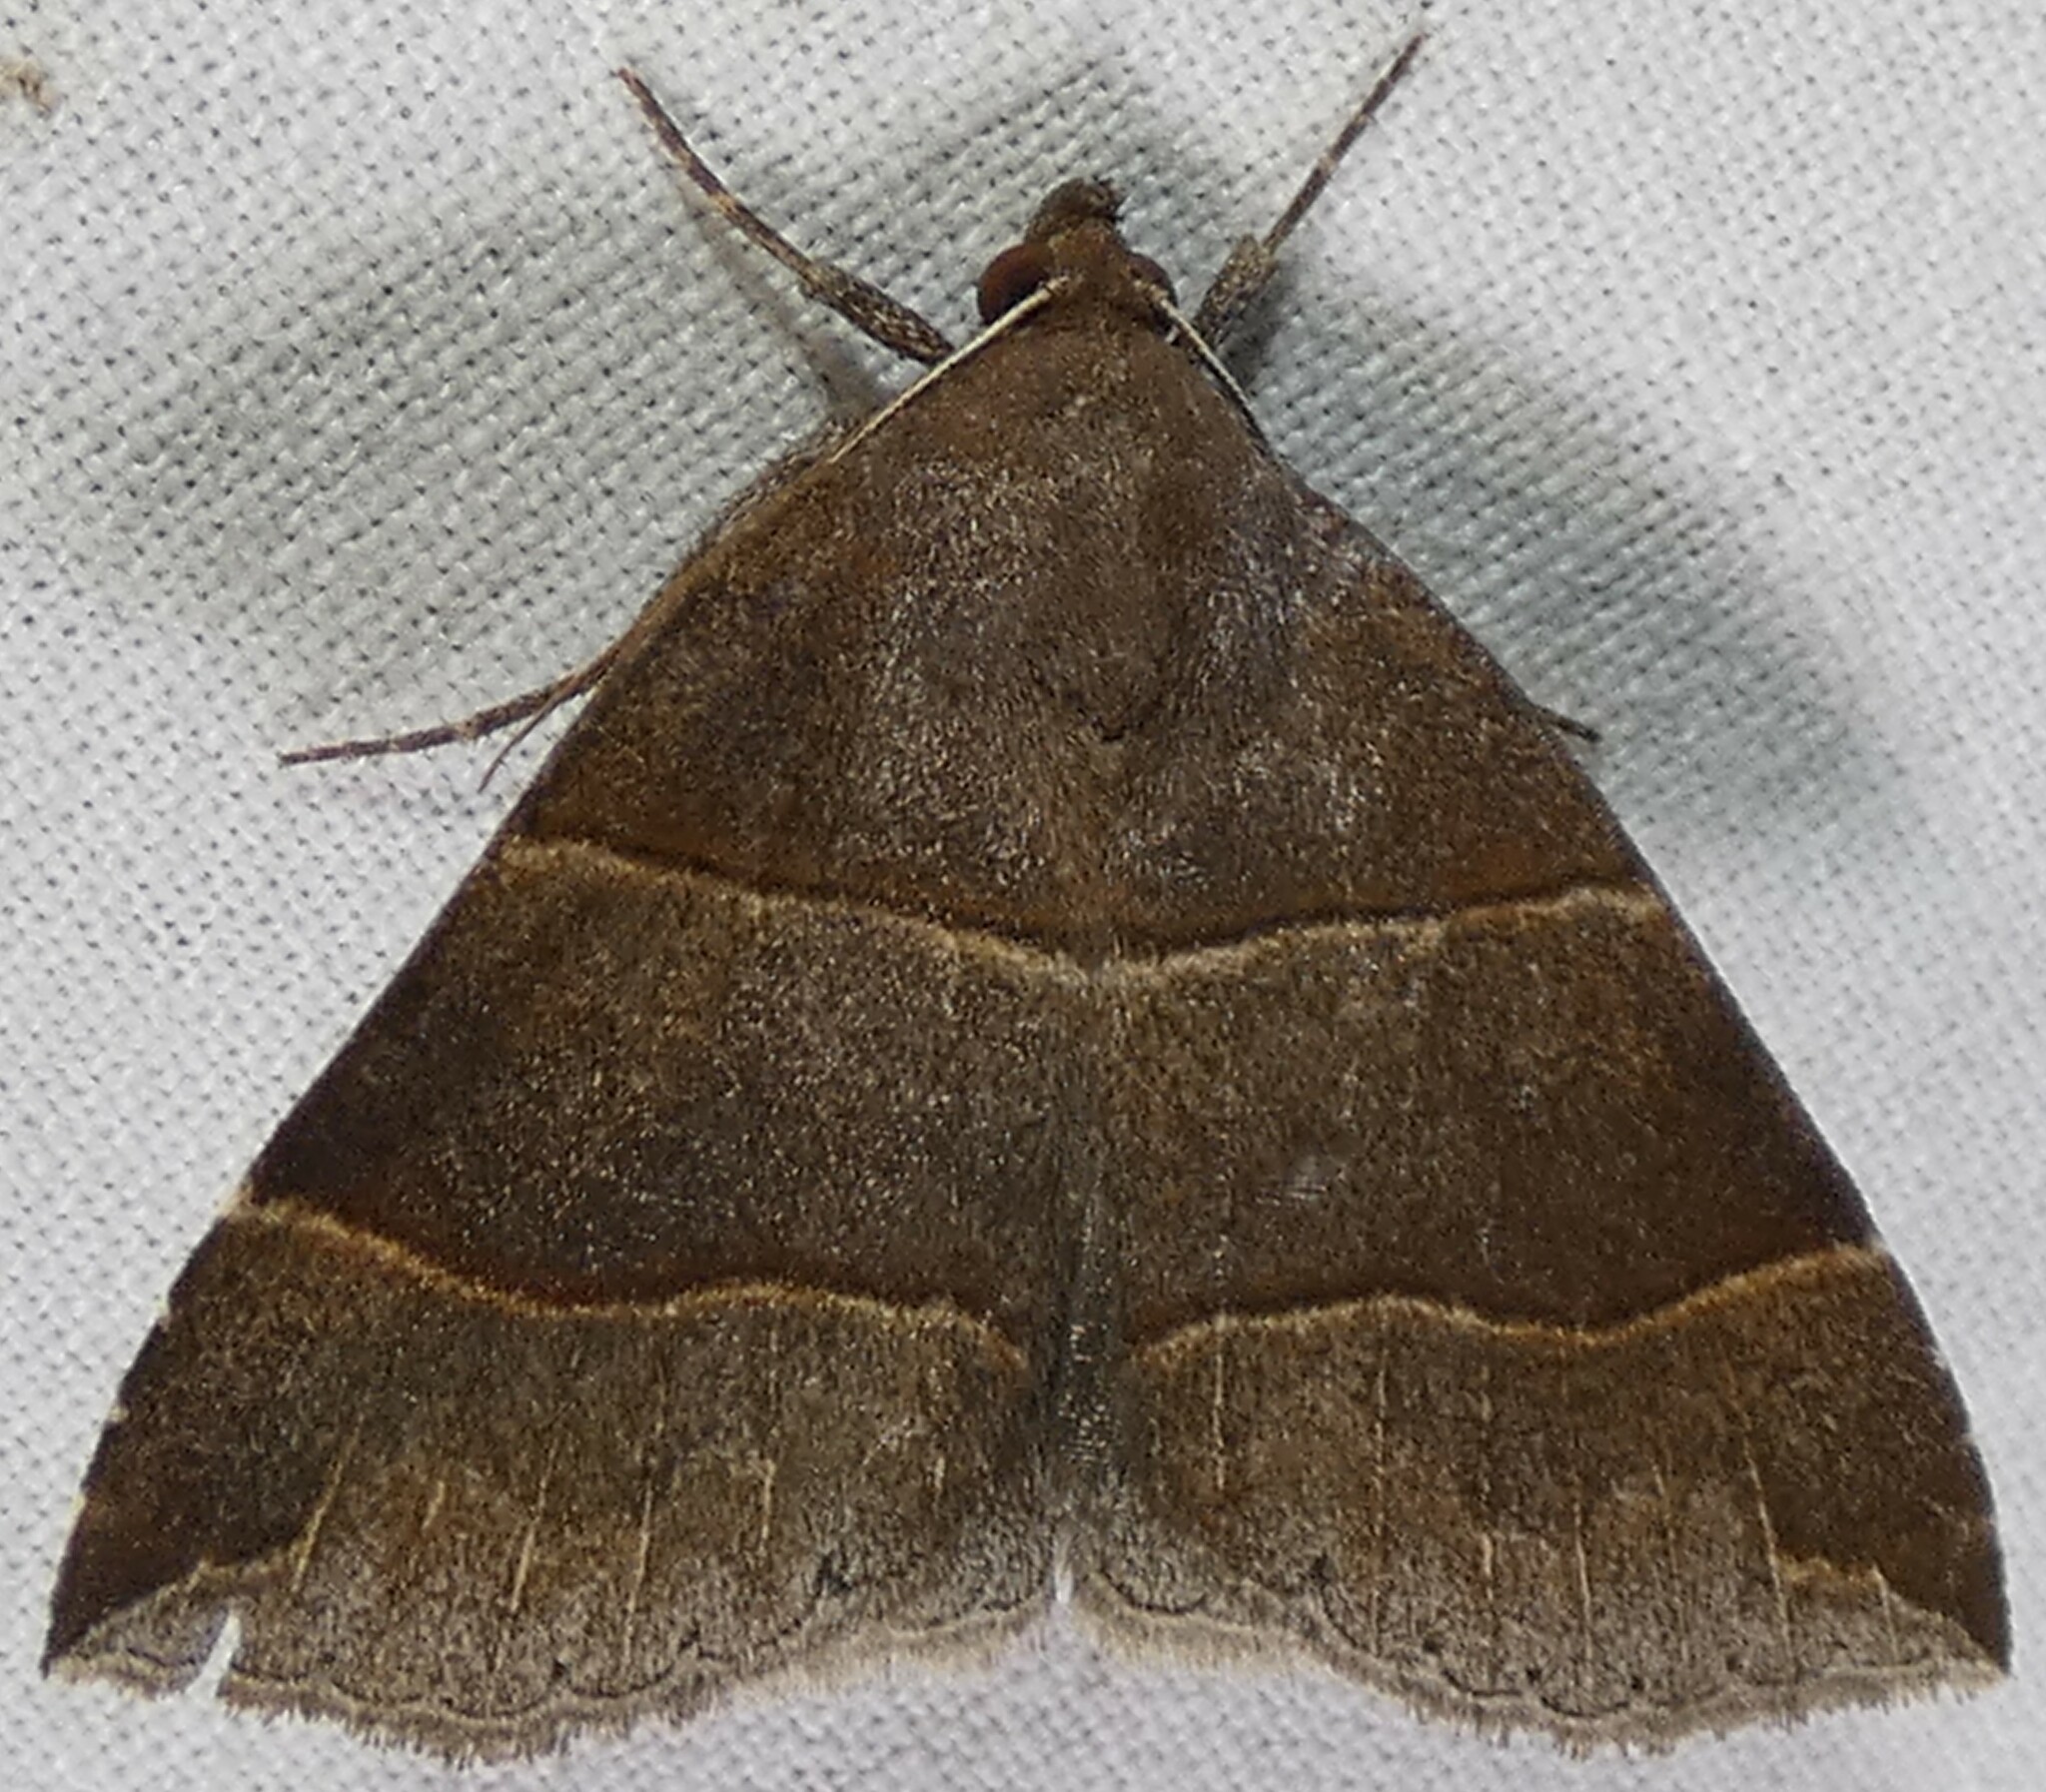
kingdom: Animalia
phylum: Arthropoda
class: Insecta
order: Lepidoptera
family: Erebidae
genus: Parallelia
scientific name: Parallelia bistriaris
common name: Maple looper moth
